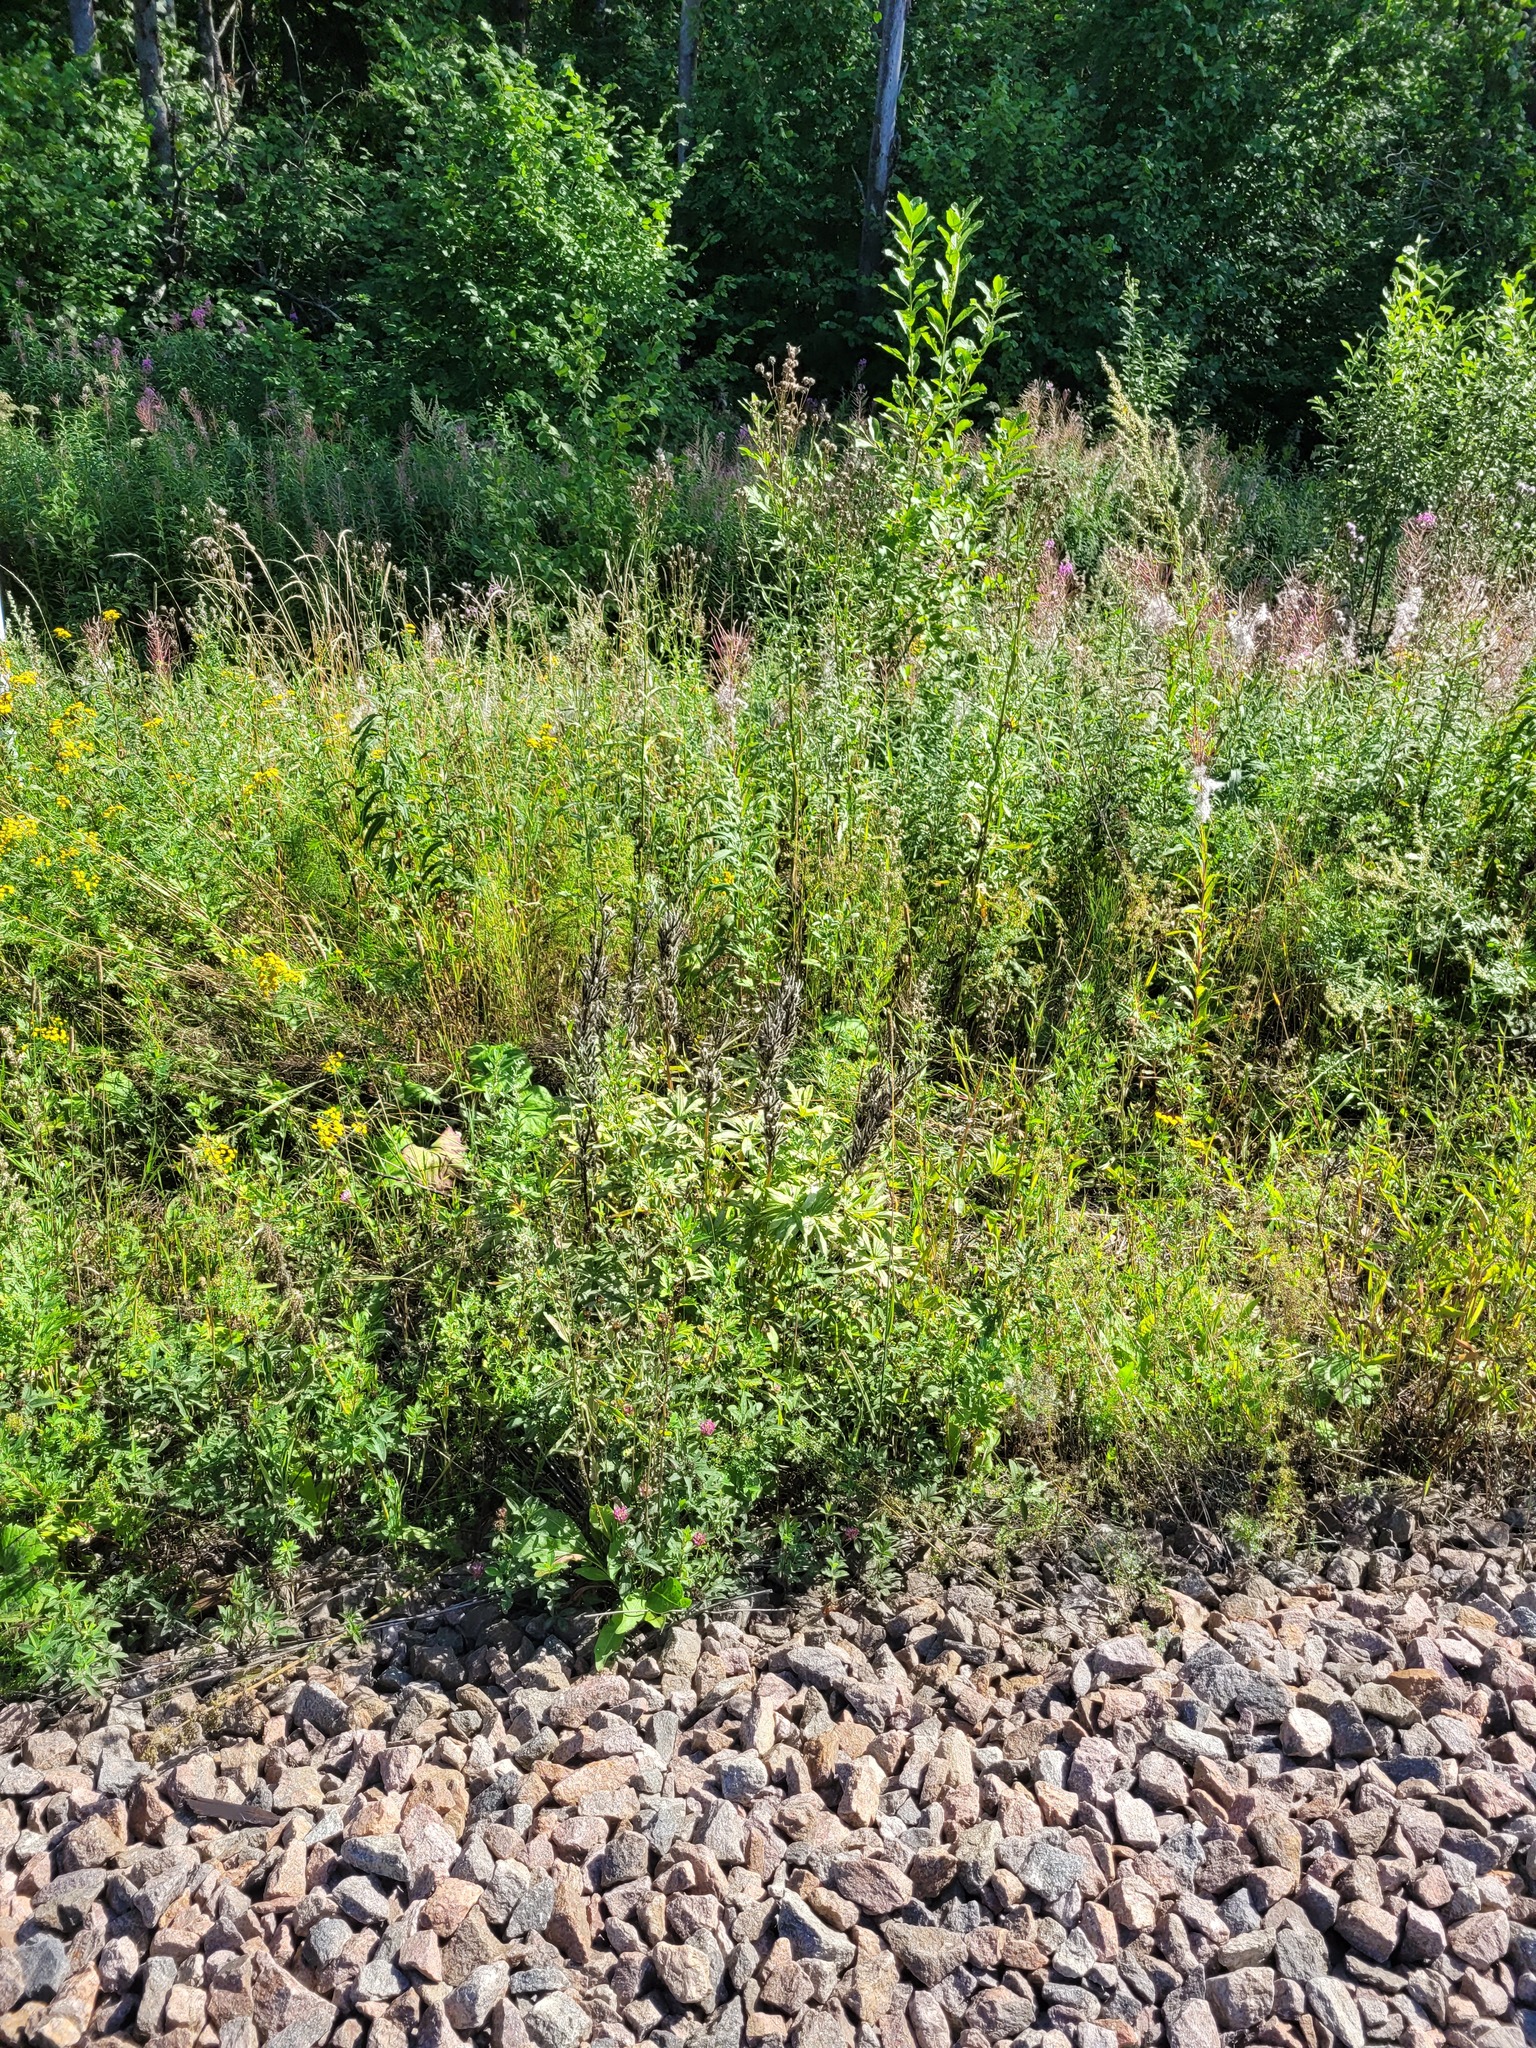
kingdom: Plantae
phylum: Tracheophyta
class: Magnoliopsida
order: Fabales
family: Fabaceae
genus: Lupinus
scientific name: Lupinus polyphyllus
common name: Garden lupin
